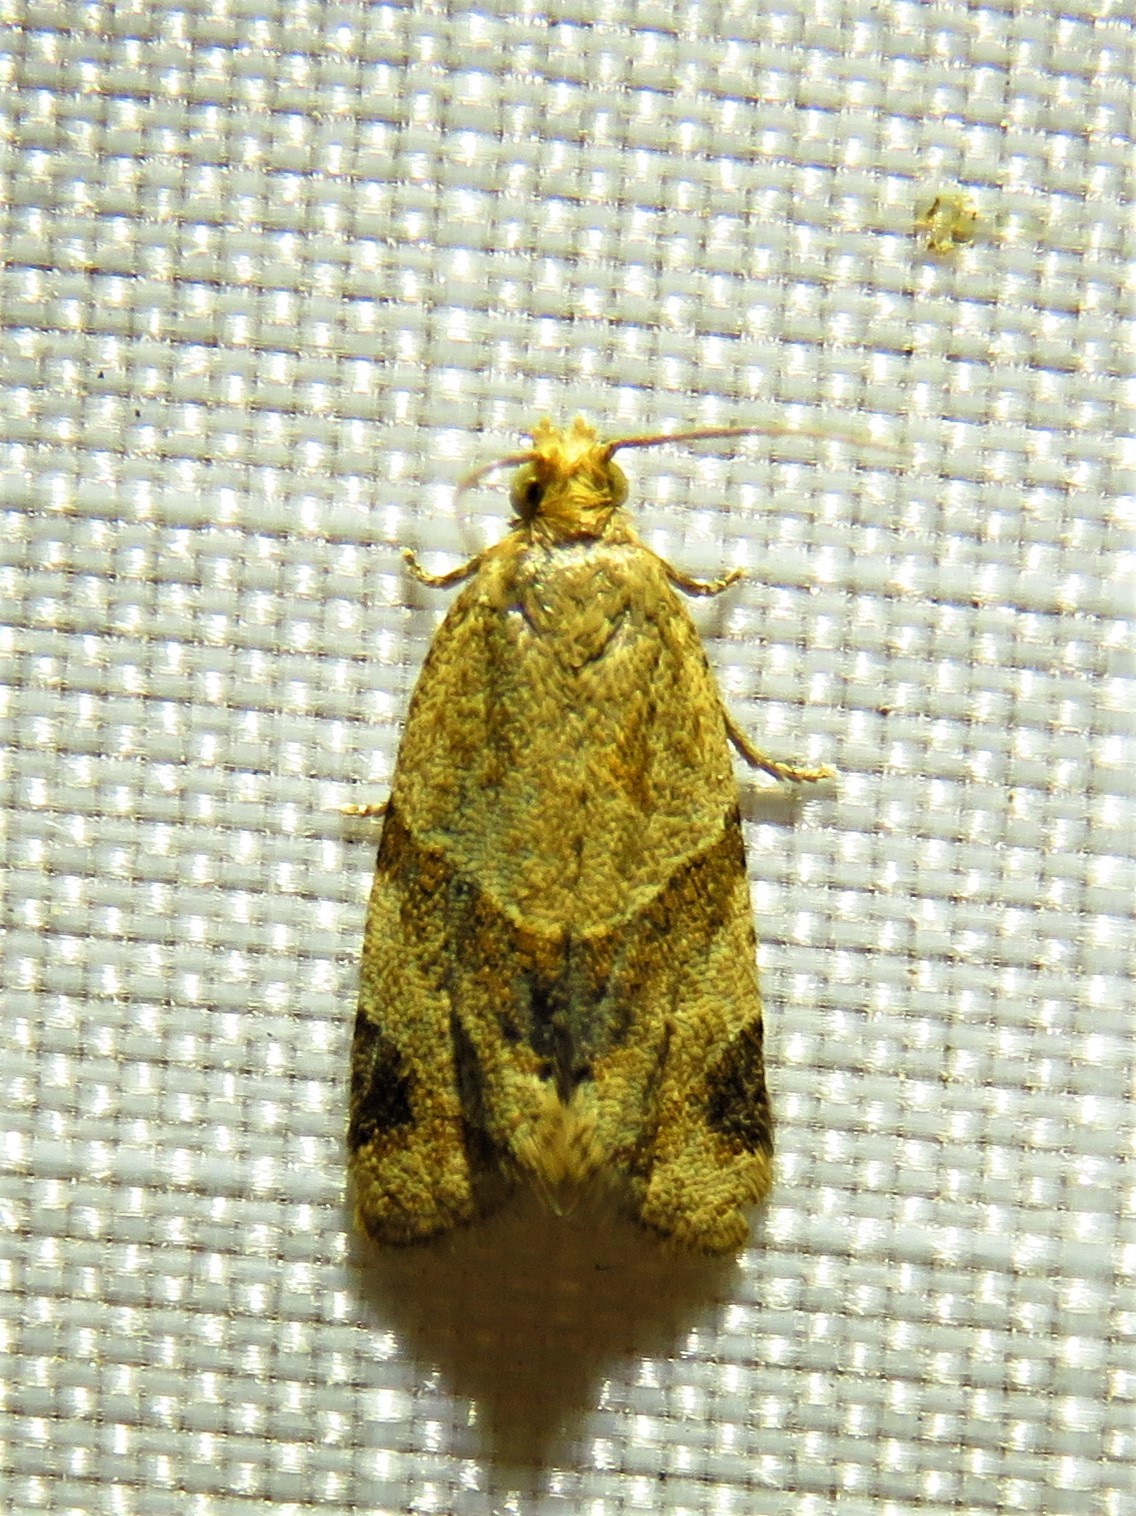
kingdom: Animalia
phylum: Arthropoda
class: Insecta
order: Lepidoptera
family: Tortricidae
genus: Clepsis
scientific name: Clepsis peritana
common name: Garden tortrix
